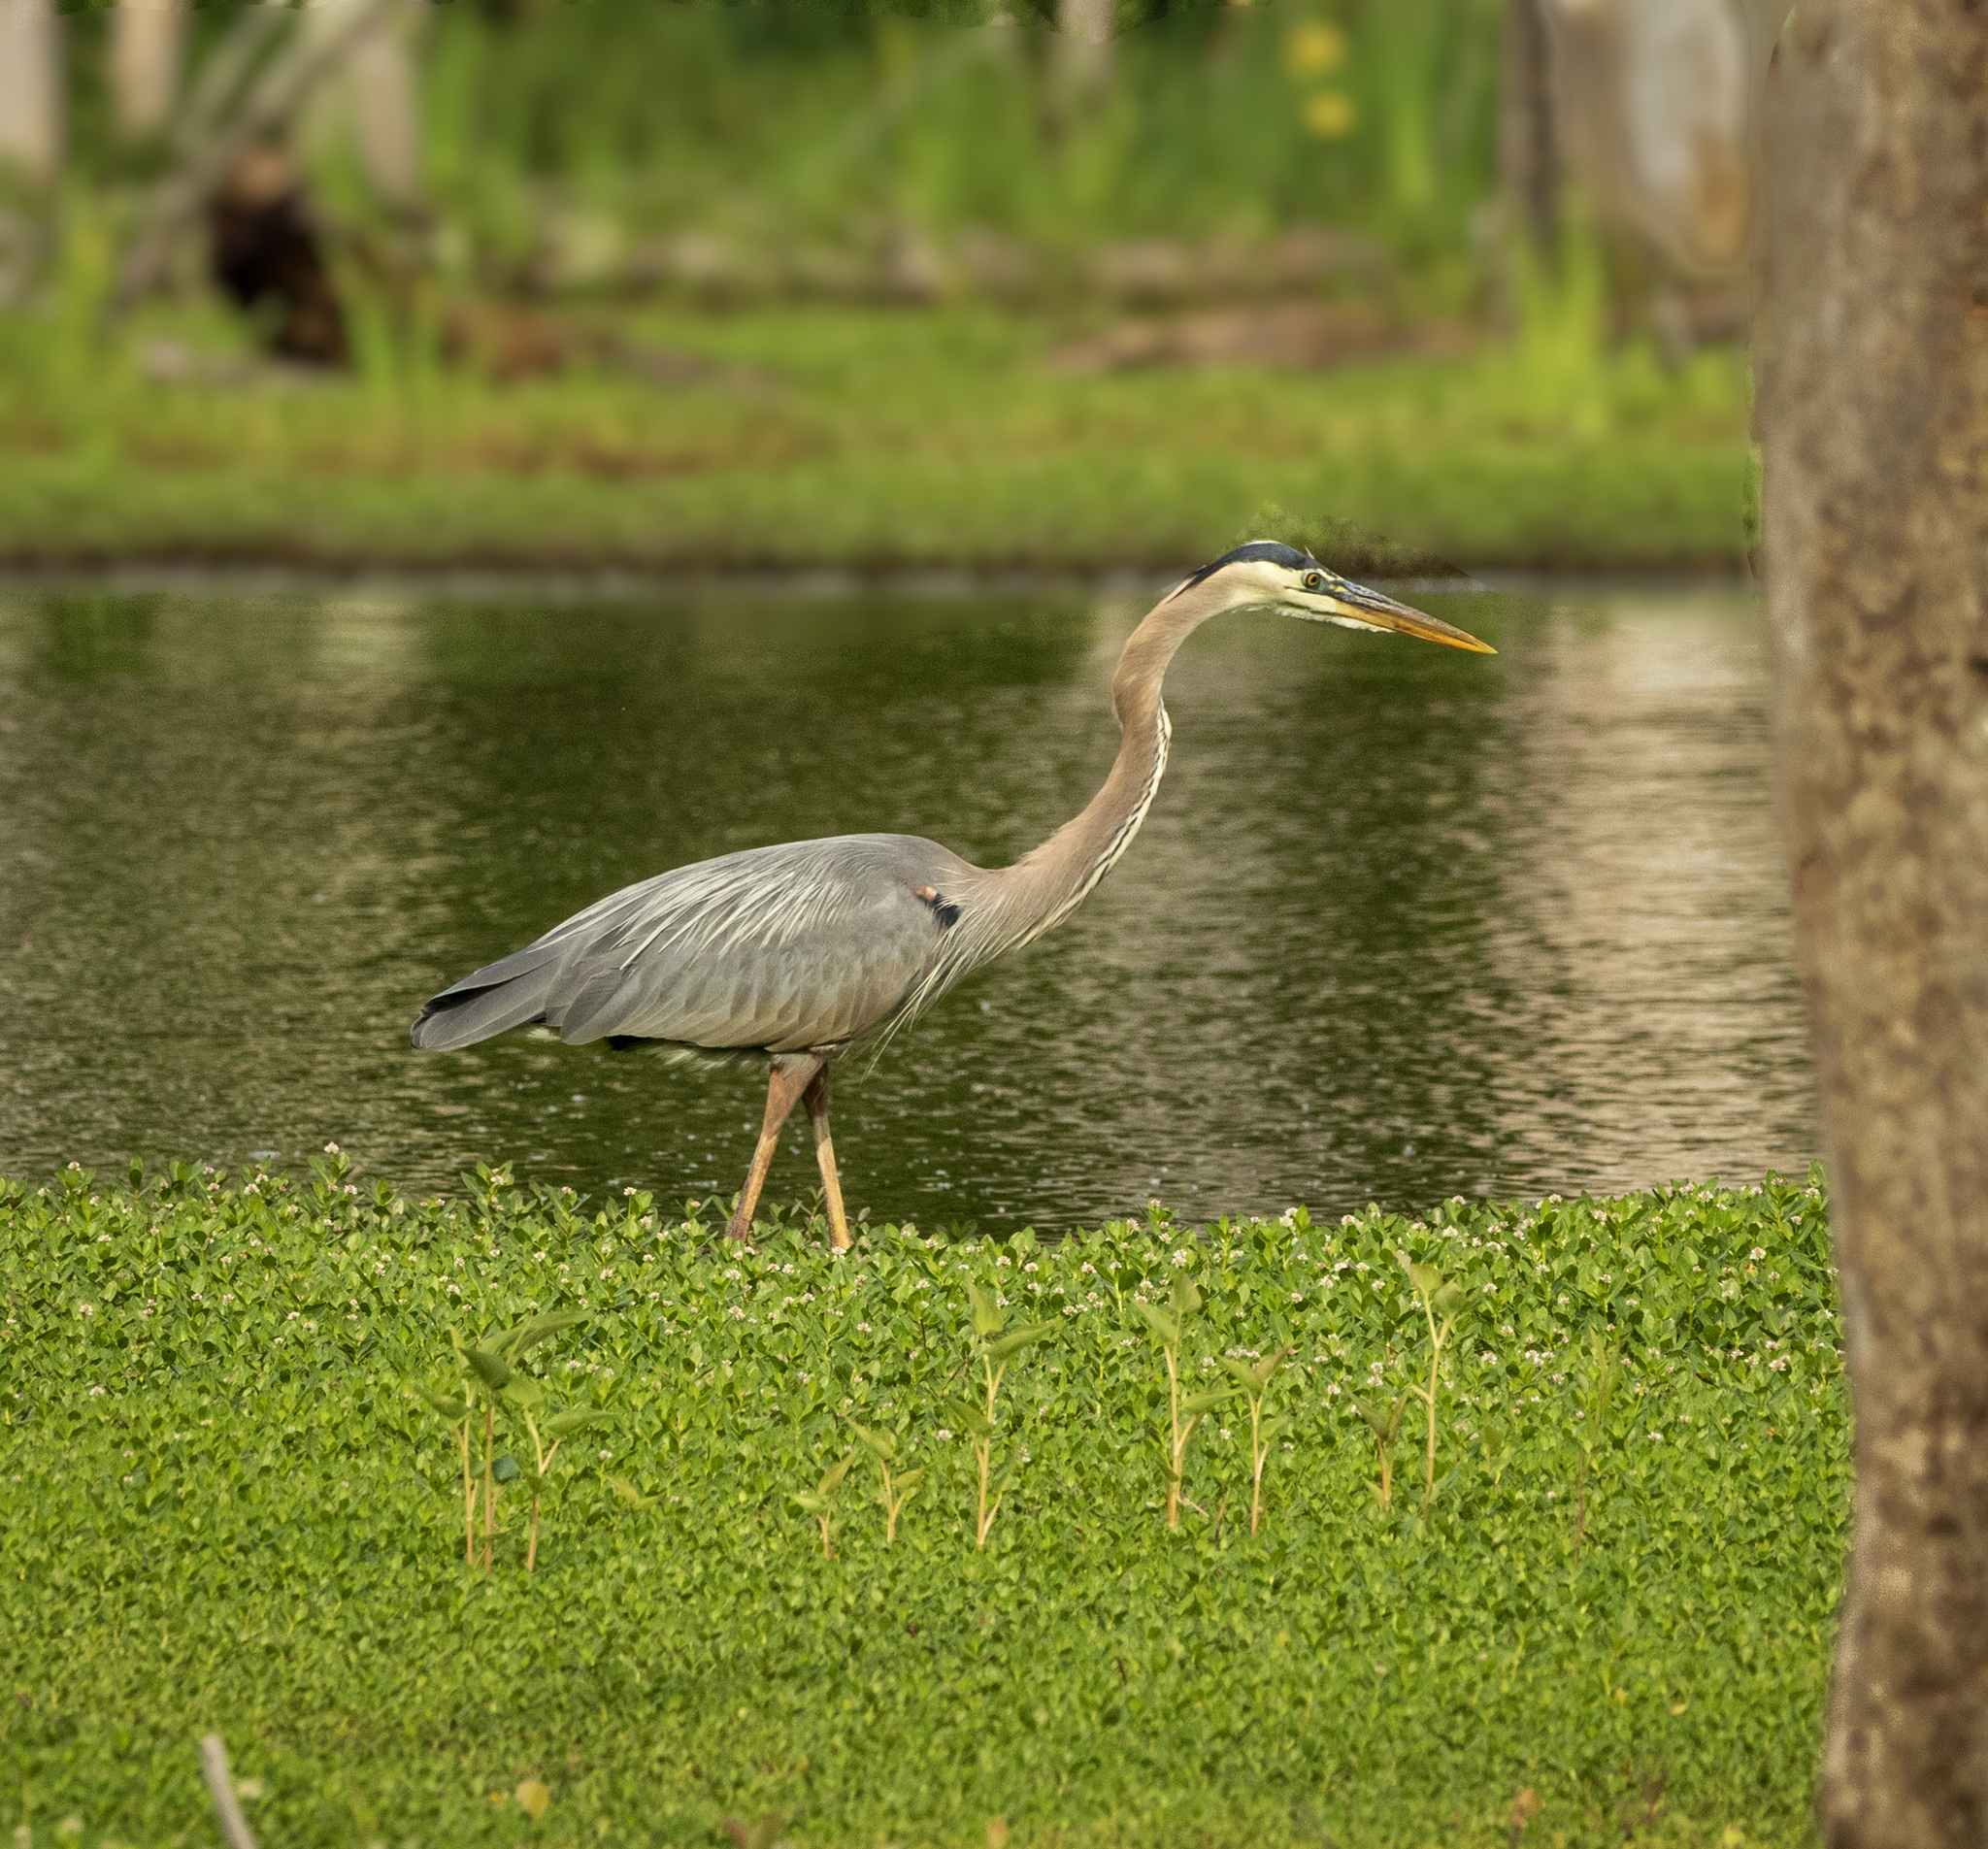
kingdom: Animalia
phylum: Chordata
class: Aves
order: Pelecaniformes
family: Ardeidae
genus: Ardea
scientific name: Ardea herodias
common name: Great blue heron
